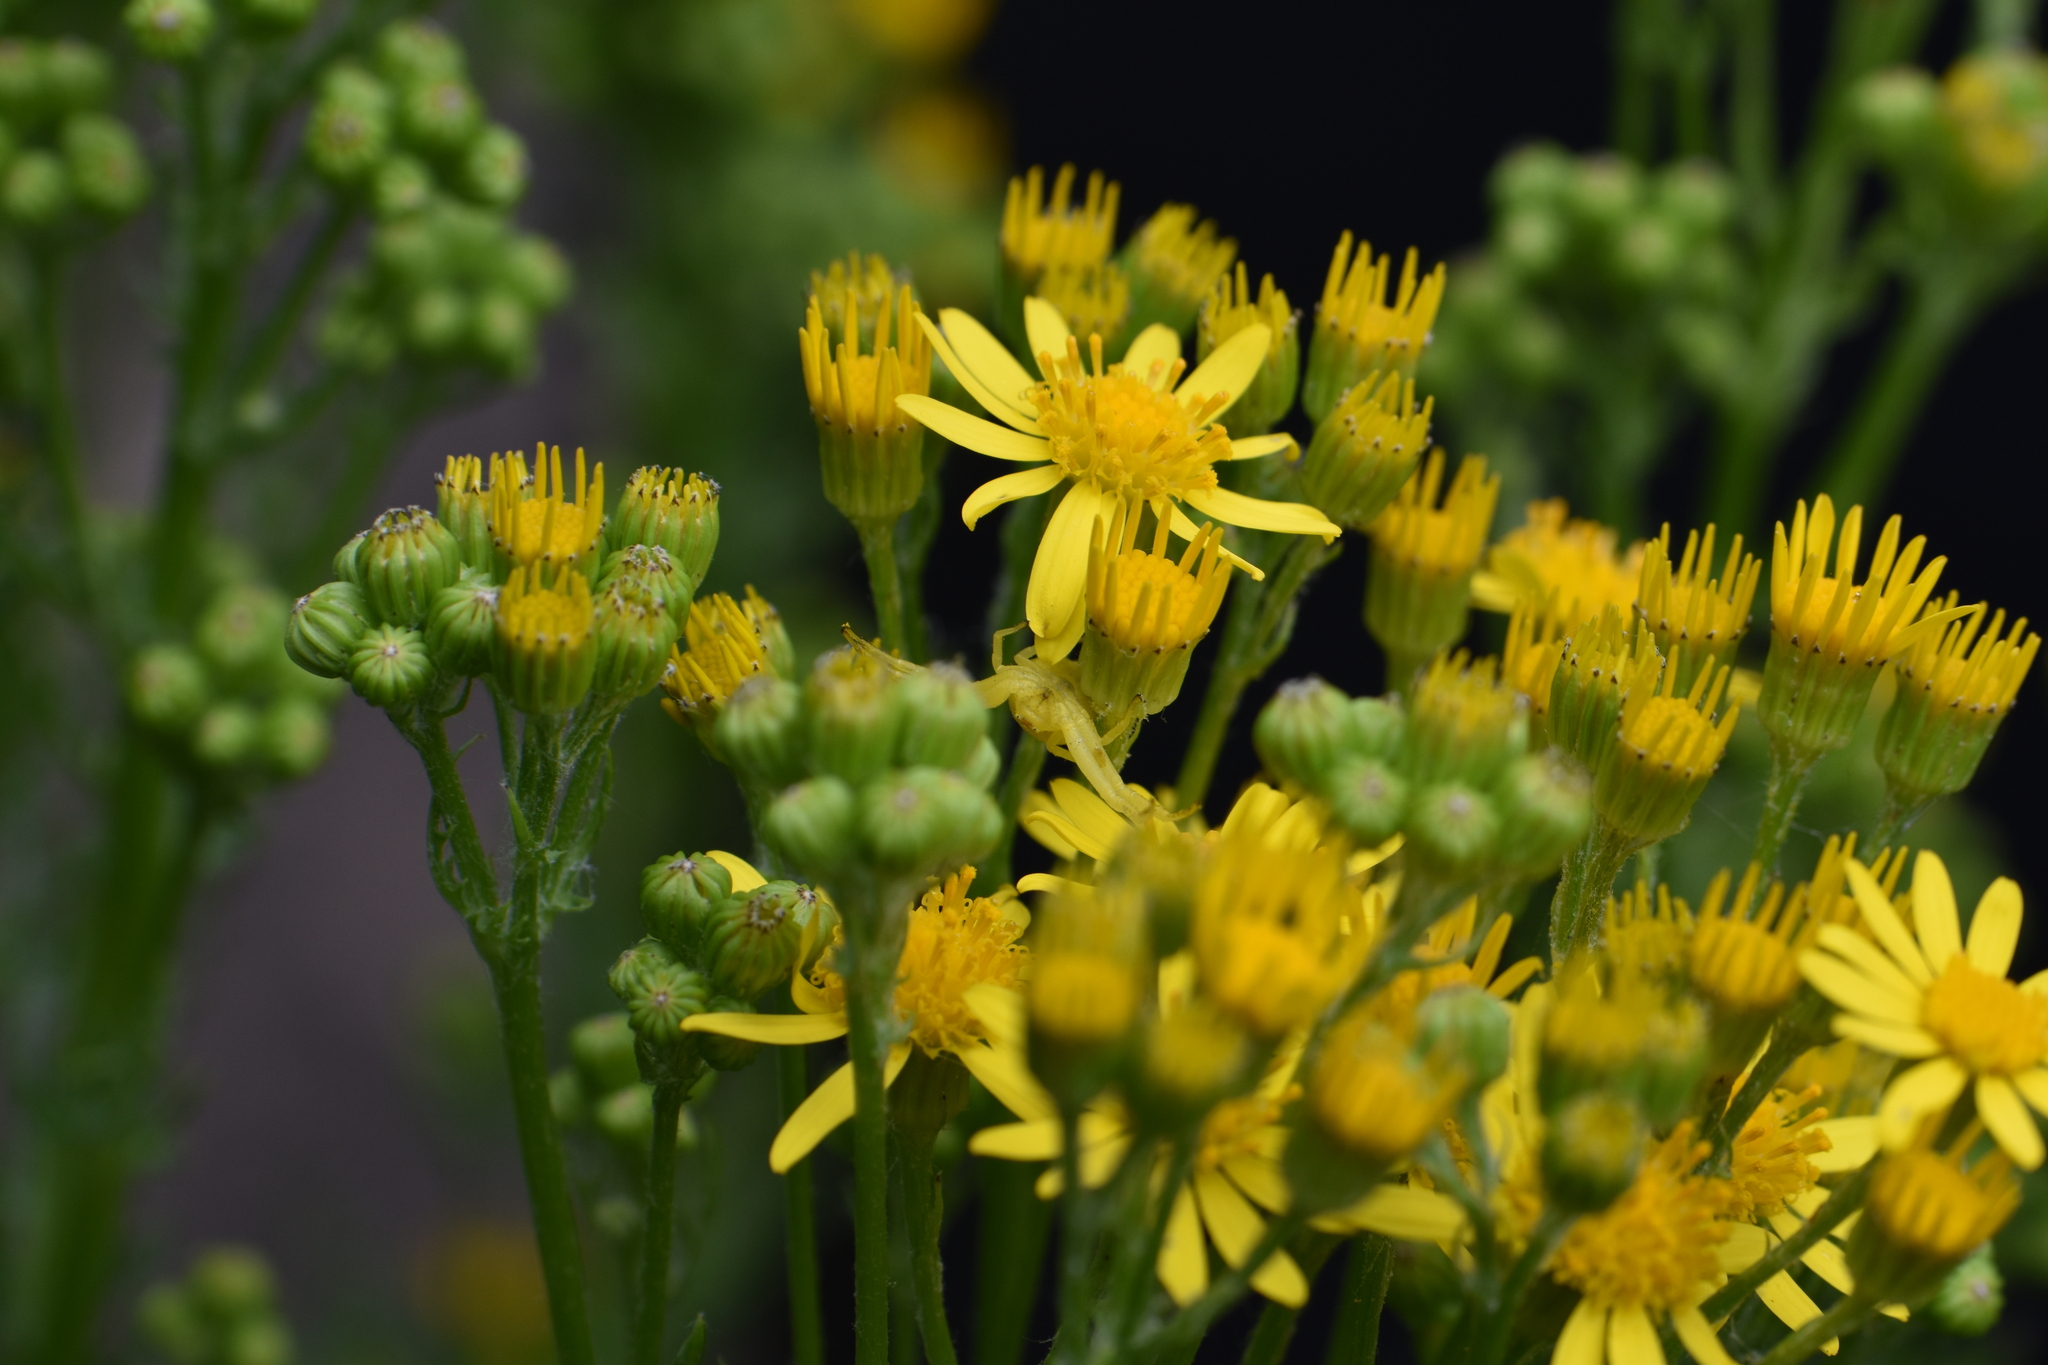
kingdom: Animalia
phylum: Arthropoda
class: Arachnida
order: Araneae
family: Thomisidae
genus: Misumena
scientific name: Misumena vatia
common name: Goldenrod crab spider
